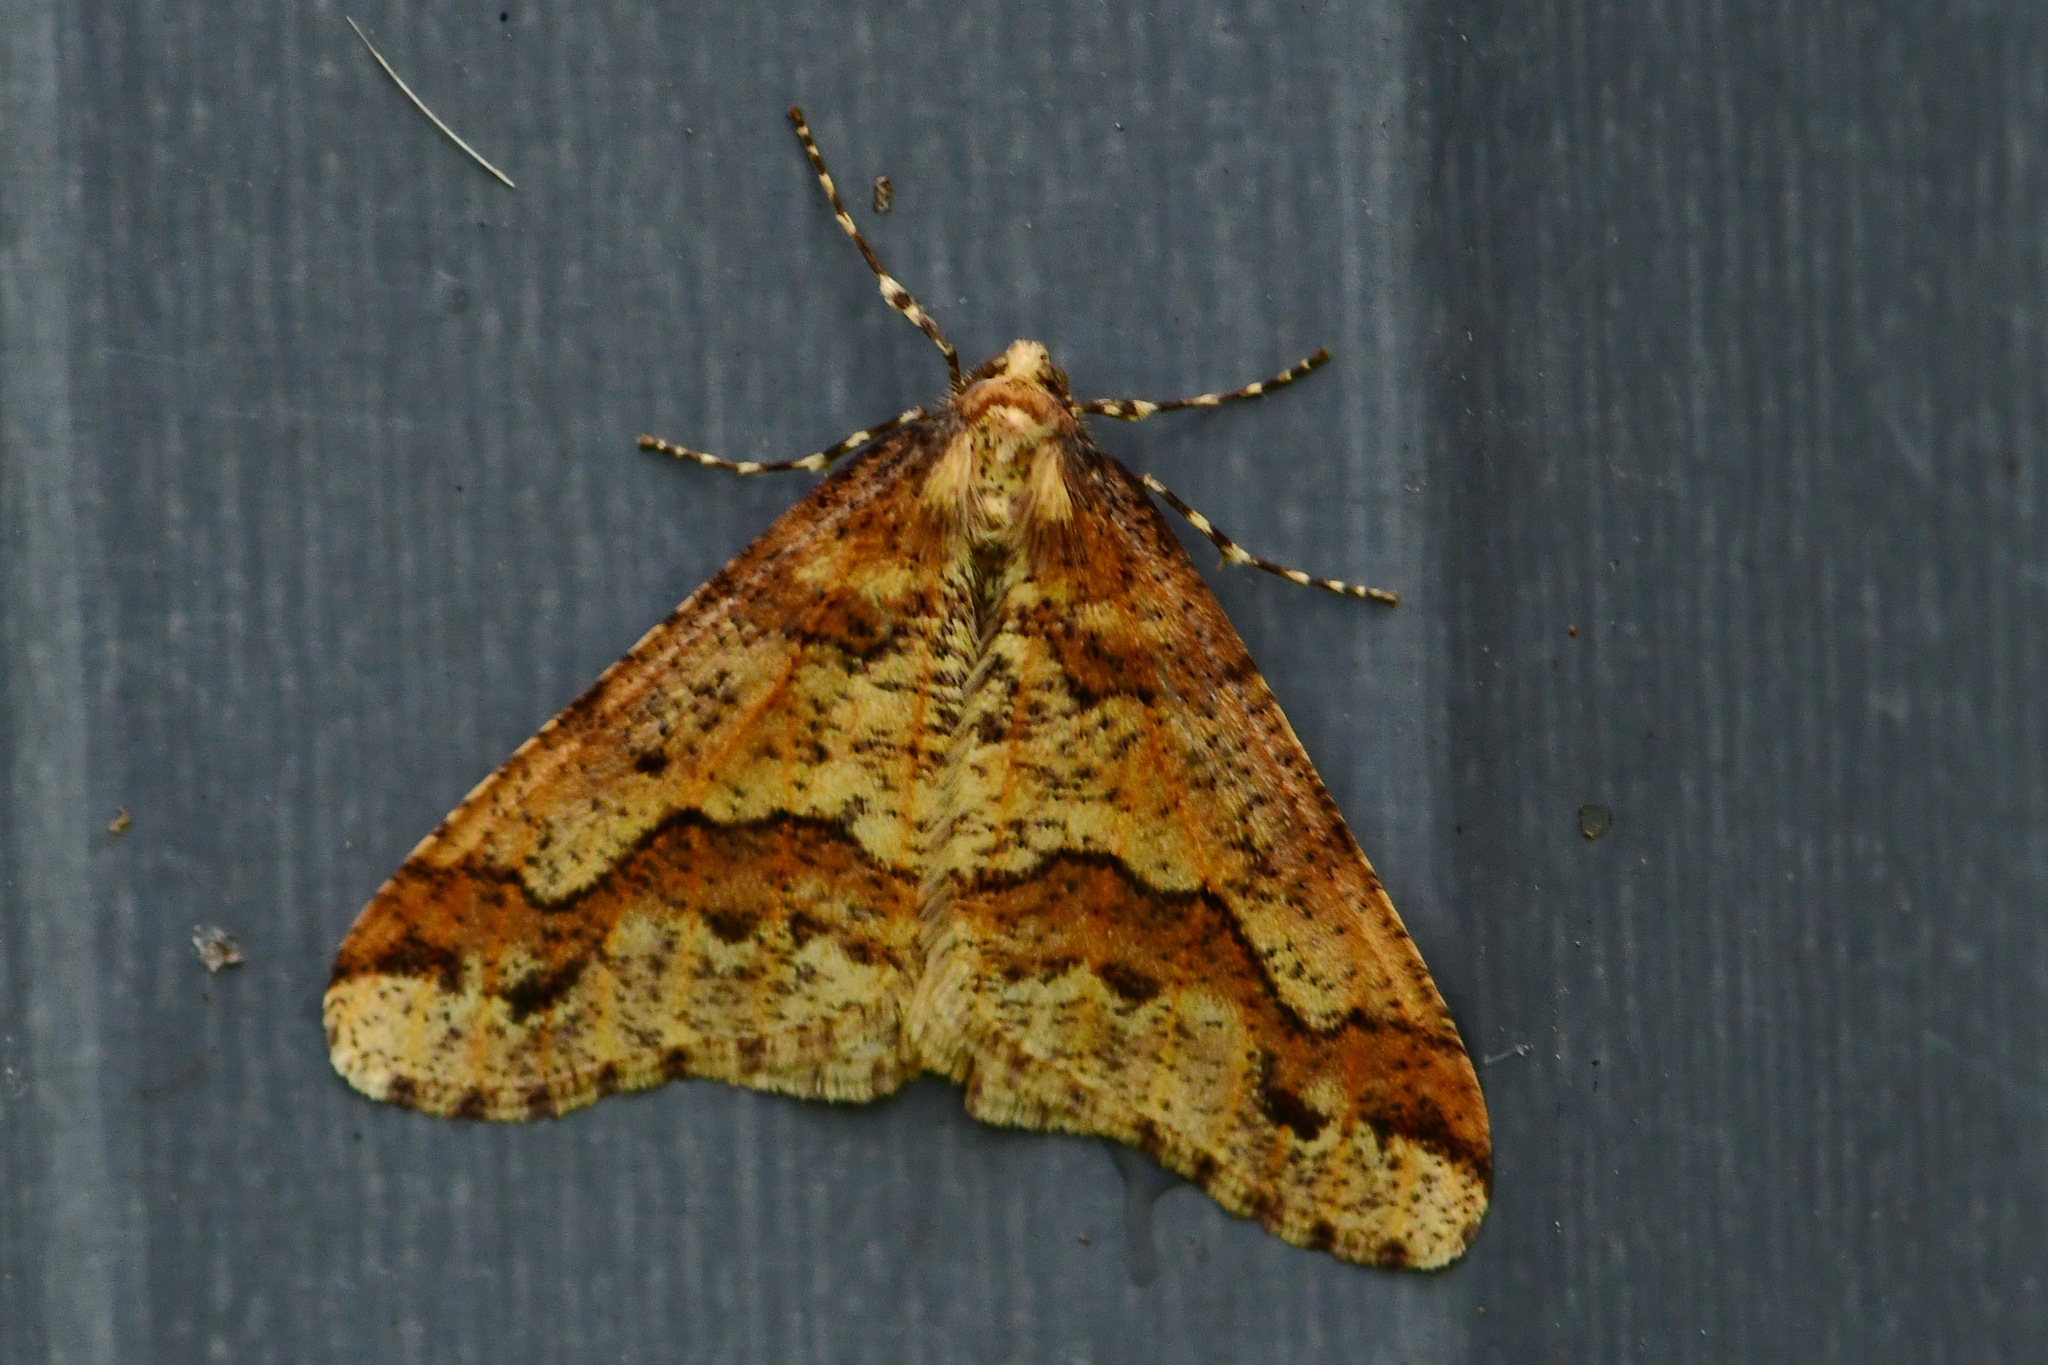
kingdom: Animalia
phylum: Arthropoda
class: Insecta
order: Lepidoptera
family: Geometridae
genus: Erannis
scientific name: Erannis defoliaria
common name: Mottled umber
